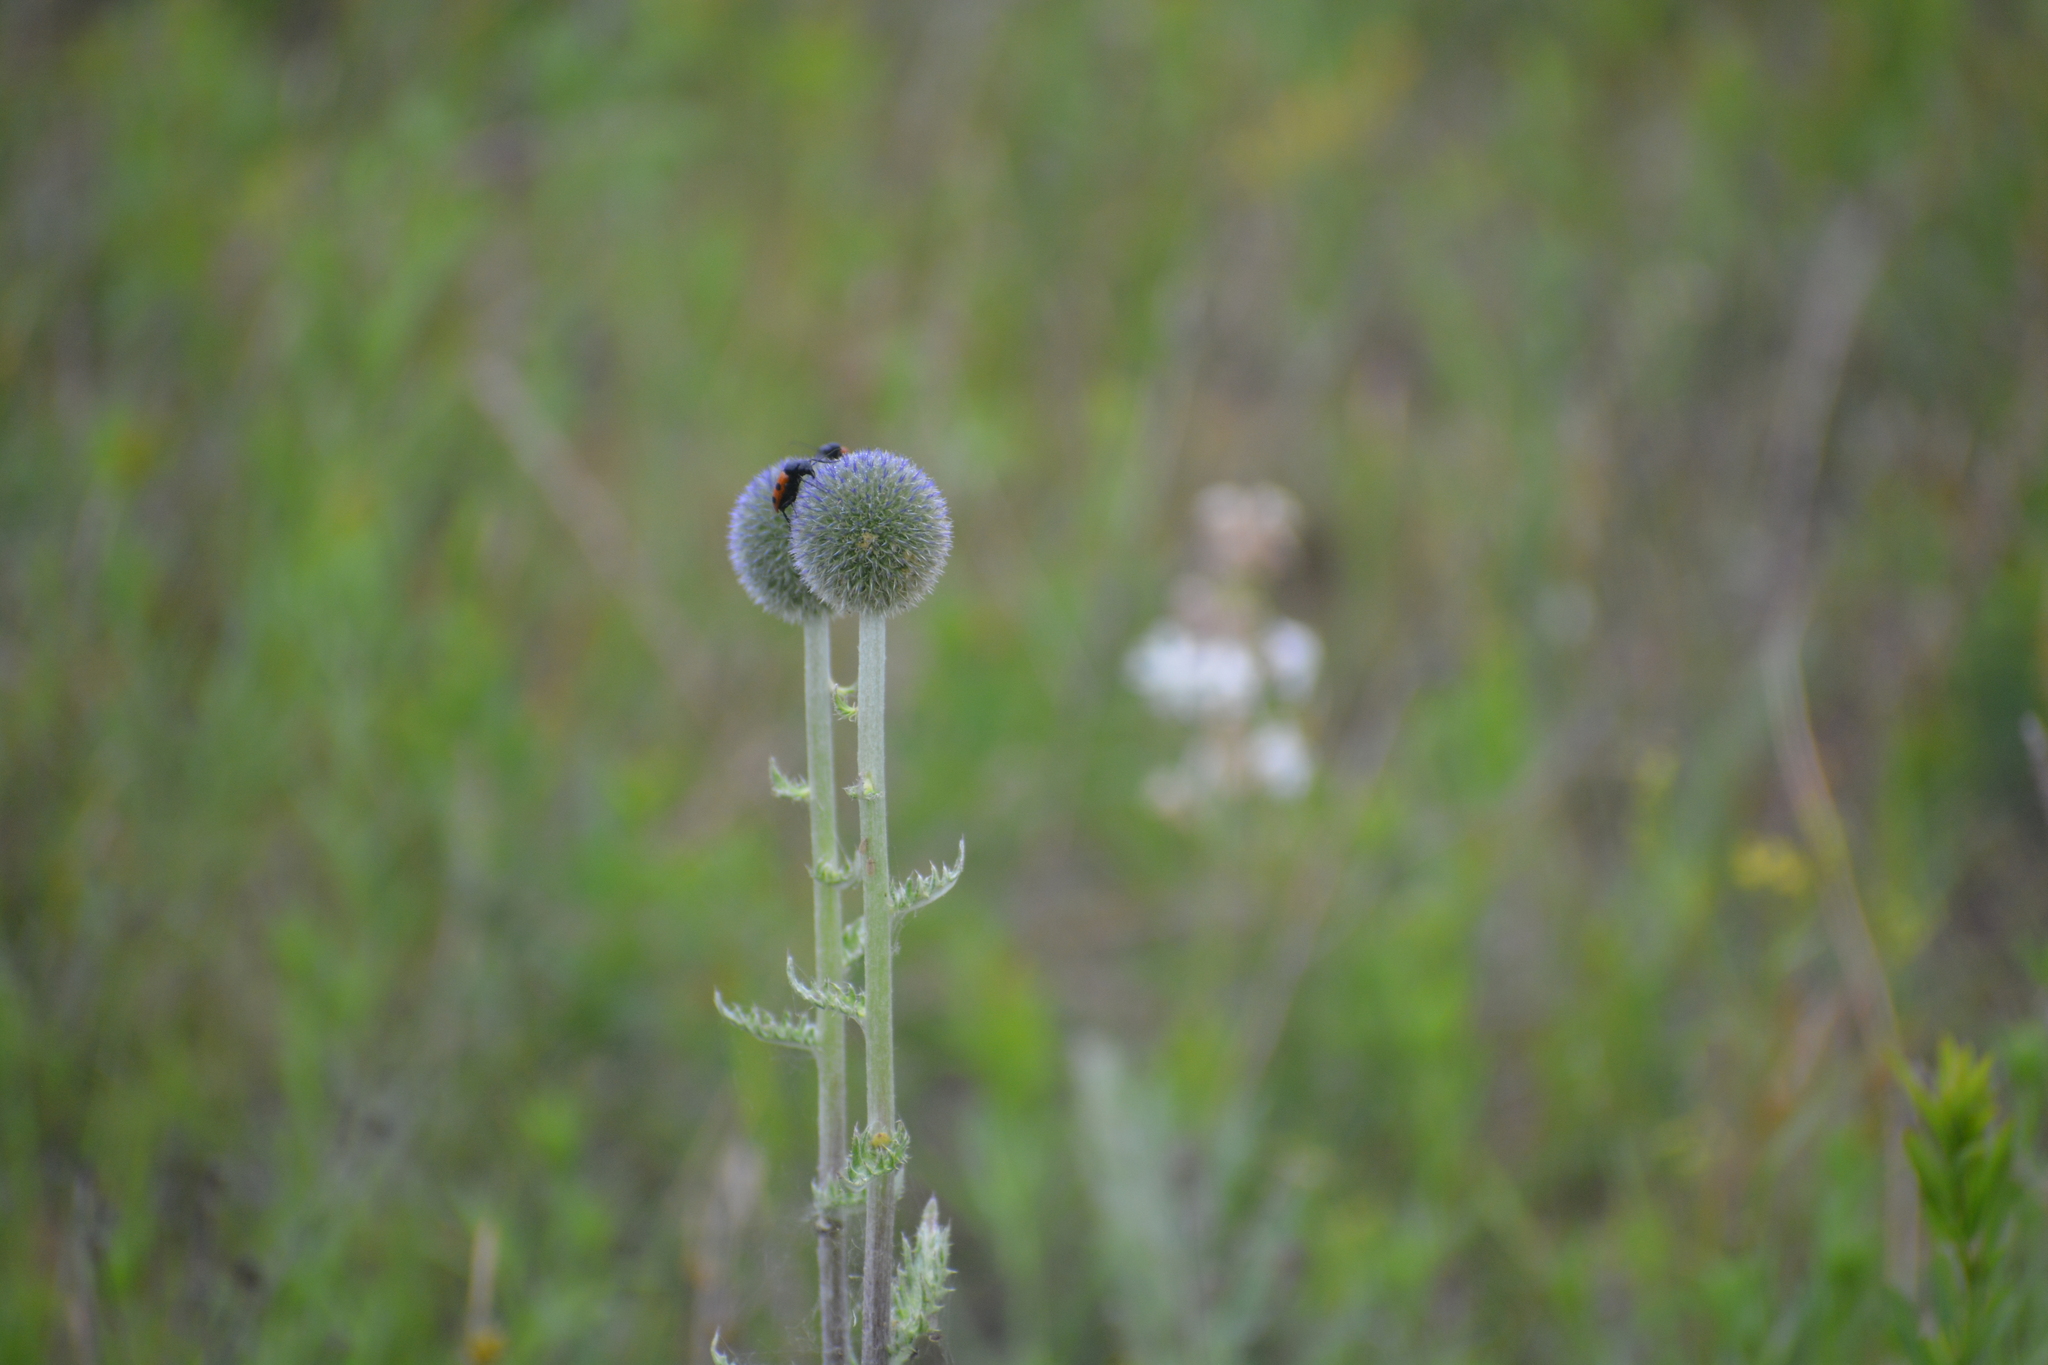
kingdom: Plantae
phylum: Tracheophyta
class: Magnoliopsida
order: Asterales
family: Asteraceae
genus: Echinops
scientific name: Echinops davuricus
